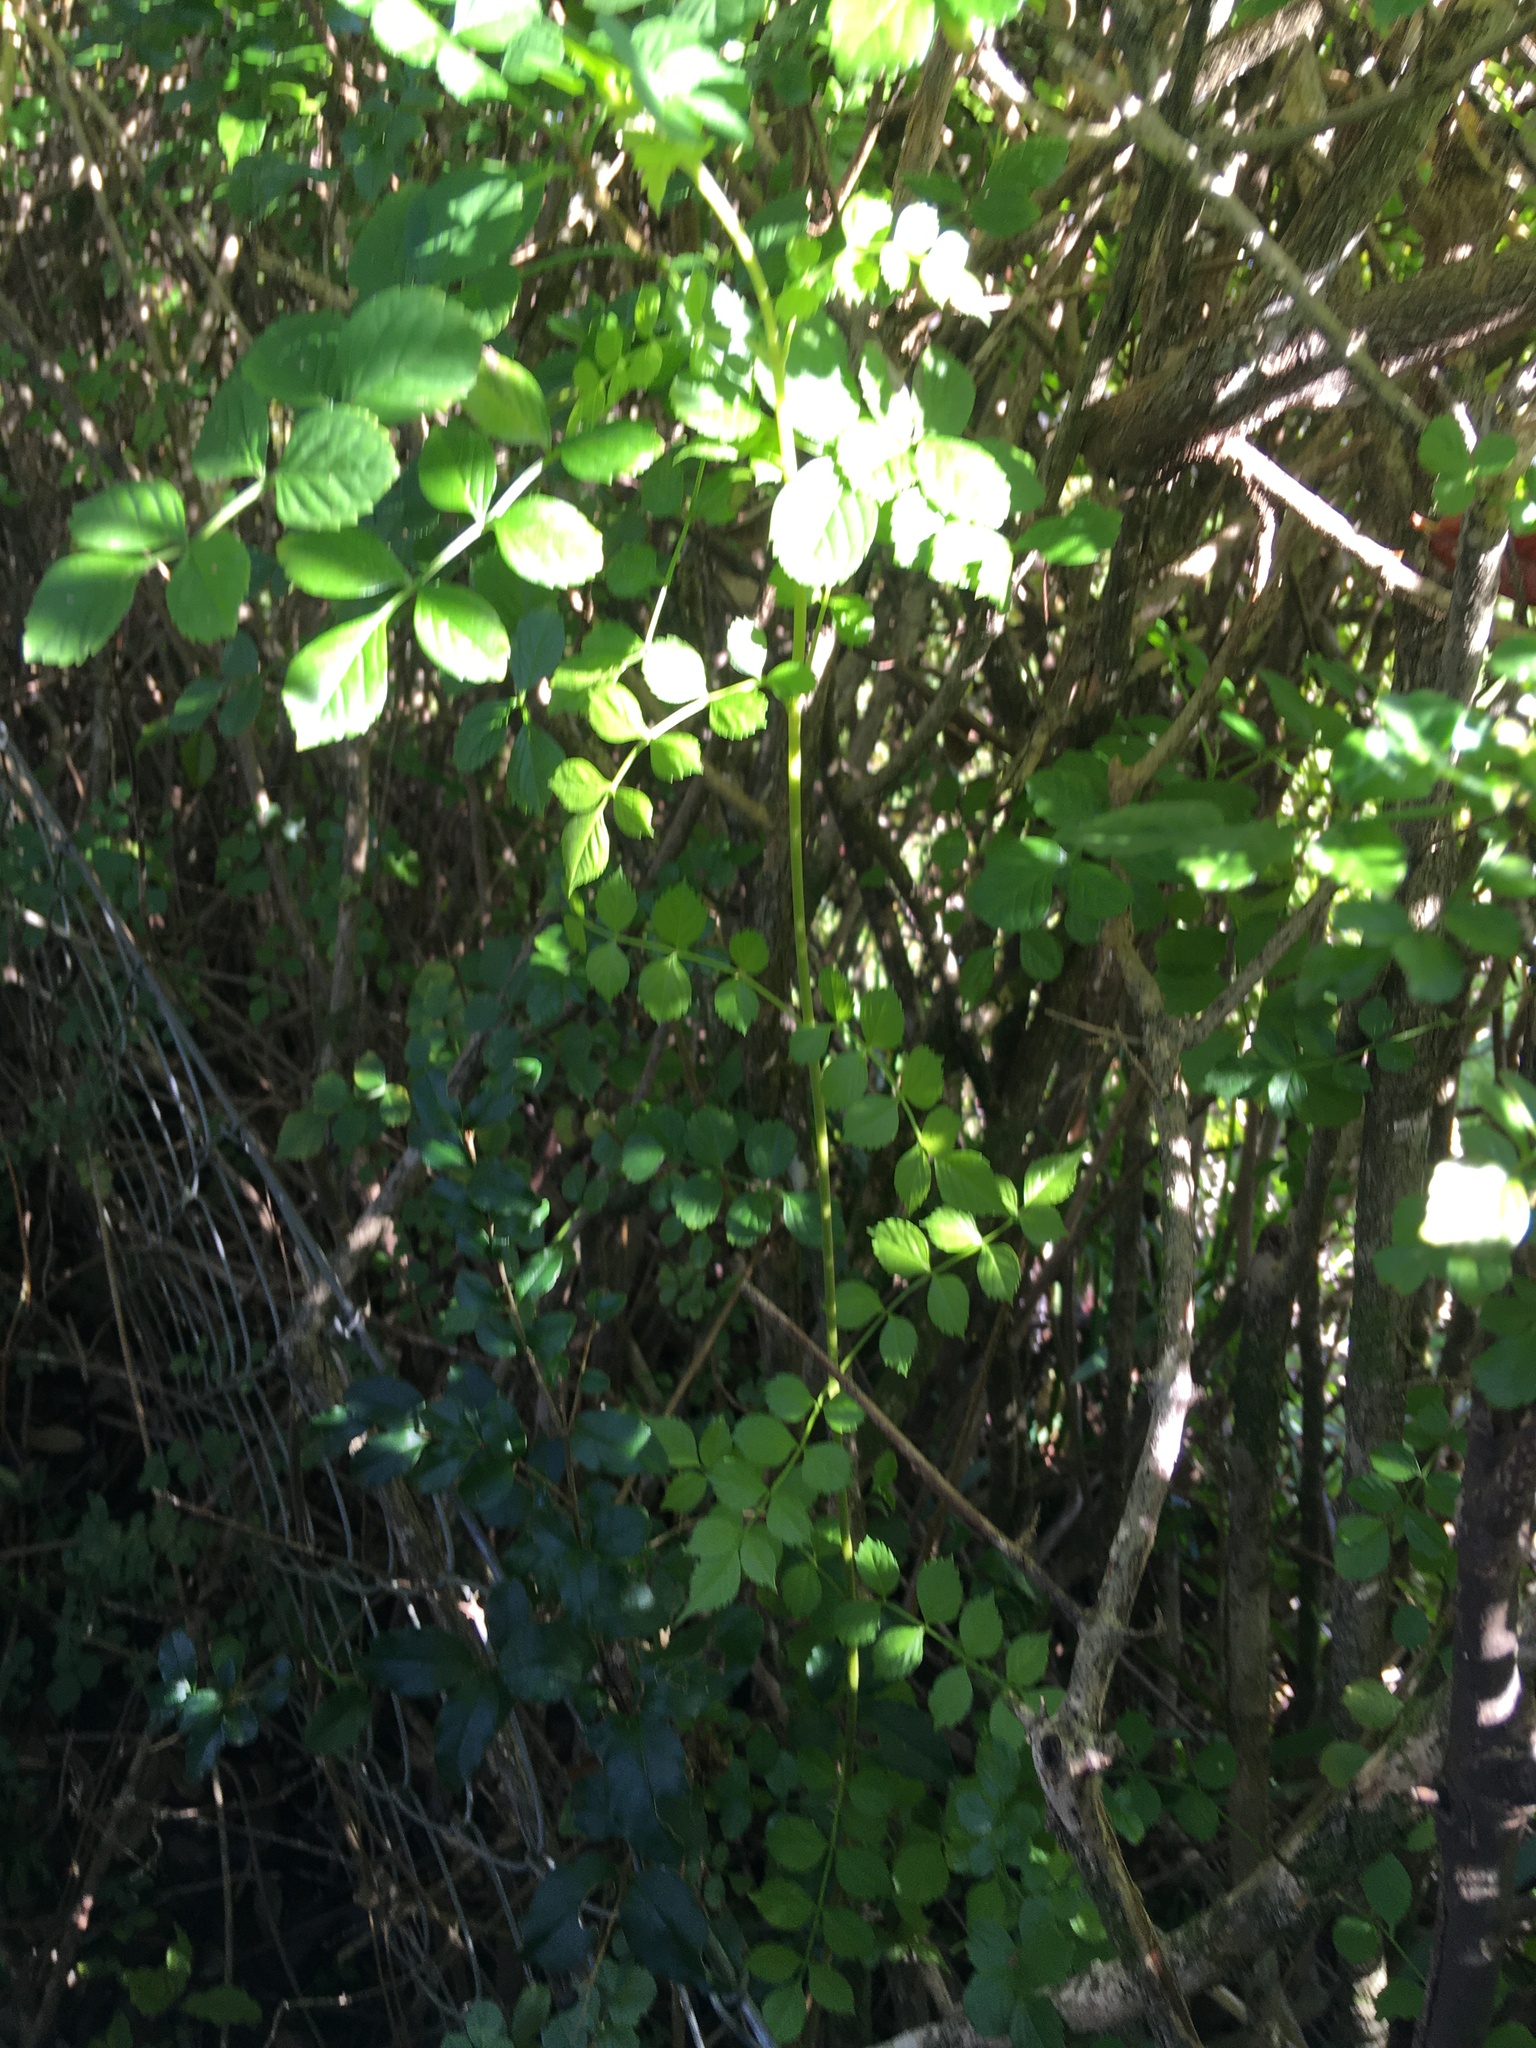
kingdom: Plantae
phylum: Tracheophyta
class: Magnoliopsida
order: Lamiales
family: Bignoniaceae
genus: Tecomaria
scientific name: Tecomaria capensis
